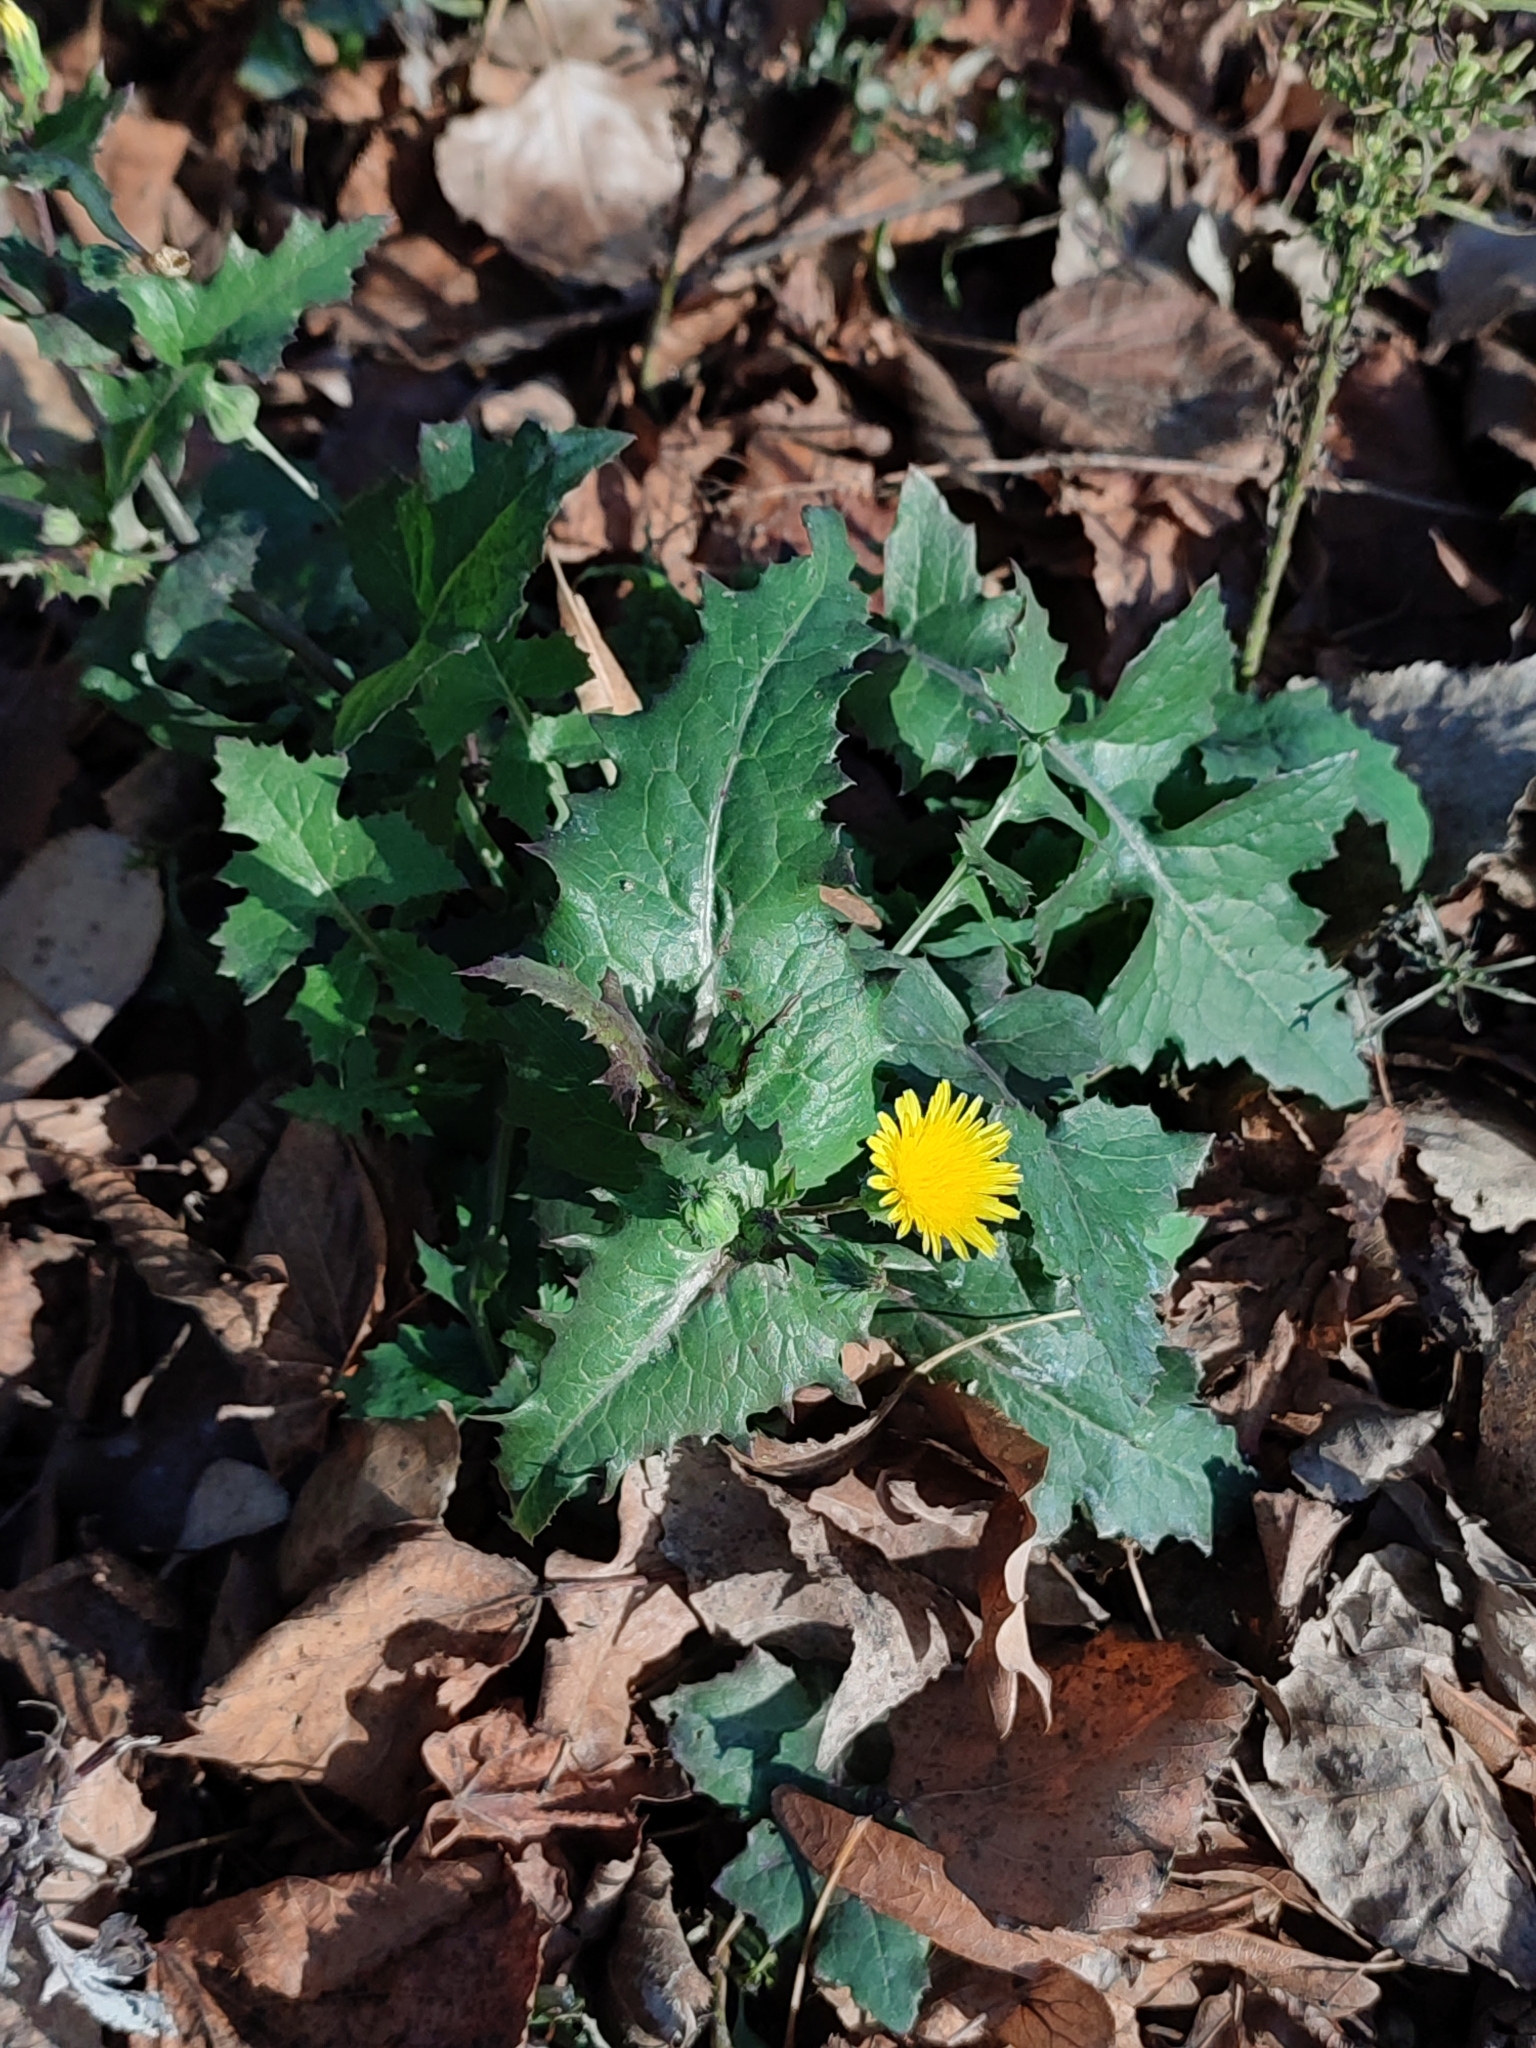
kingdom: Plantae
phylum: Tracheophyta
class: Magnoliopsida
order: Asterales
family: Asteraceae
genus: Sonchus
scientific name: Sonchus oleraceus
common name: Common sowthistle
